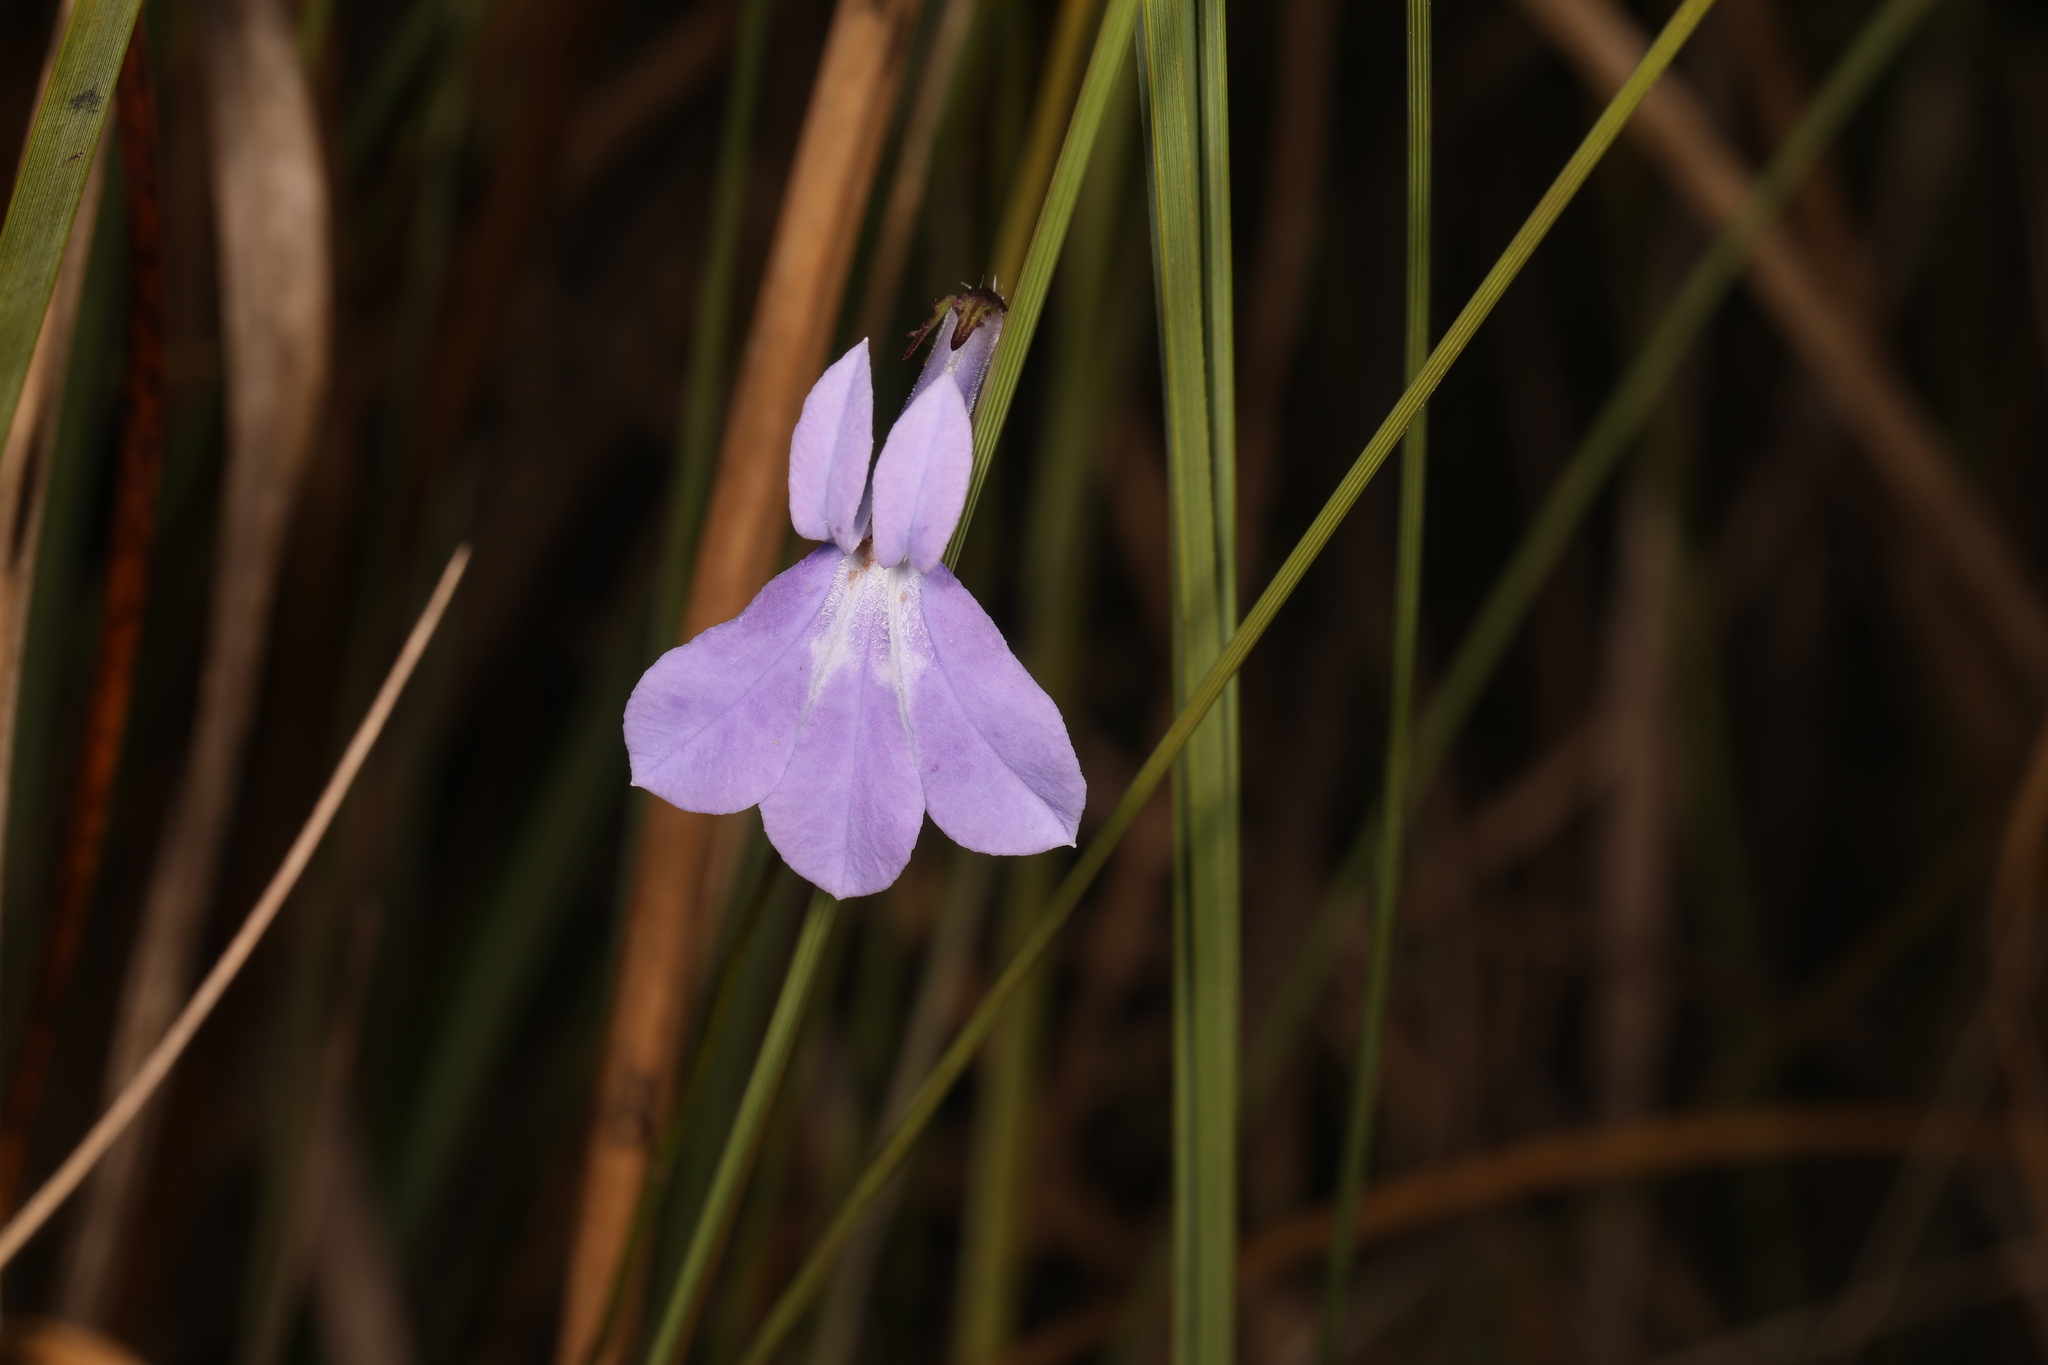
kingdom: Plantae
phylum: Tracheophyta
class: Magnoliopsida
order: Asterales
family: Campanulaceae
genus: Lobelia
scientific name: Lobelia glandulosa
